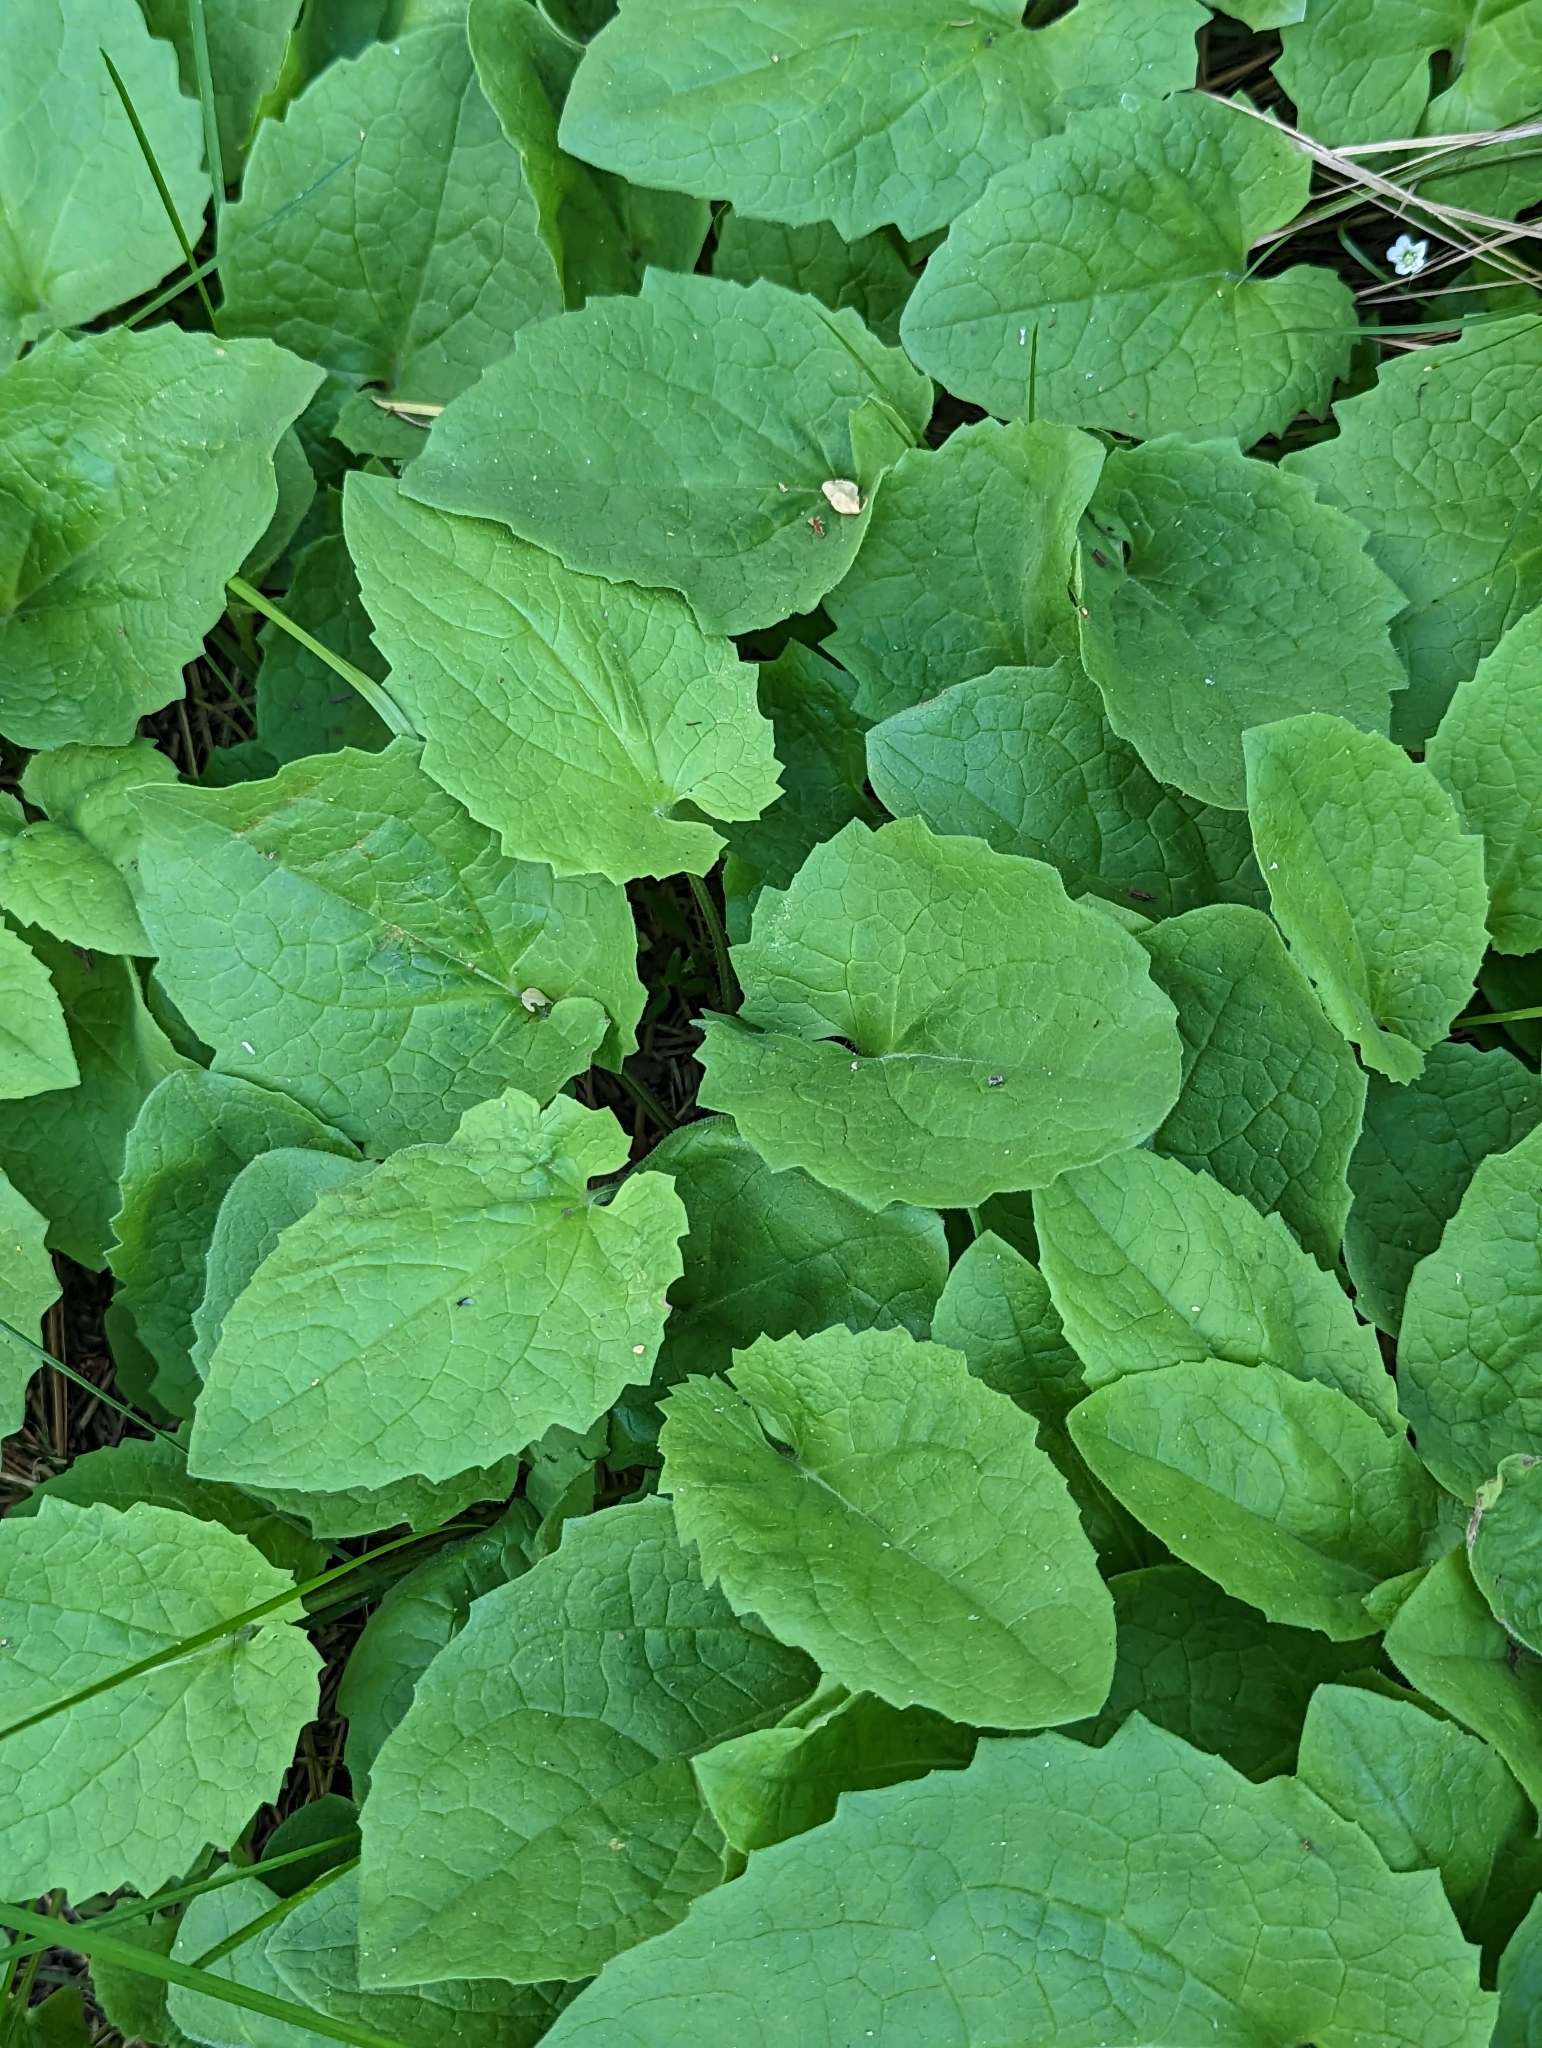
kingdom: Plantae
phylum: Tracheophyta
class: Magnoliopsida
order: Asterales
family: Asteraceae
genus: Arnica
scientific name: Arnica cordifolia
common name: Heart-leaf arnica
